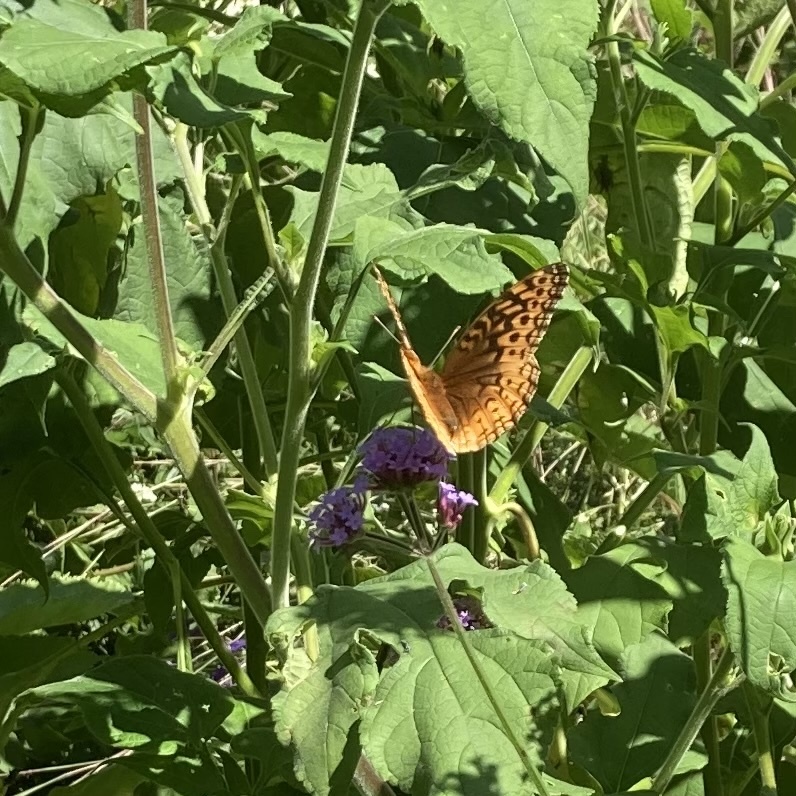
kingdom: Animalia
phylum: Arthropoda
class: Insecta
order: Lepidoptera
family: Nymphalidae
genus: Speyeria
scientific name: Speyeria cybele
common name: Great spangled fritillary
